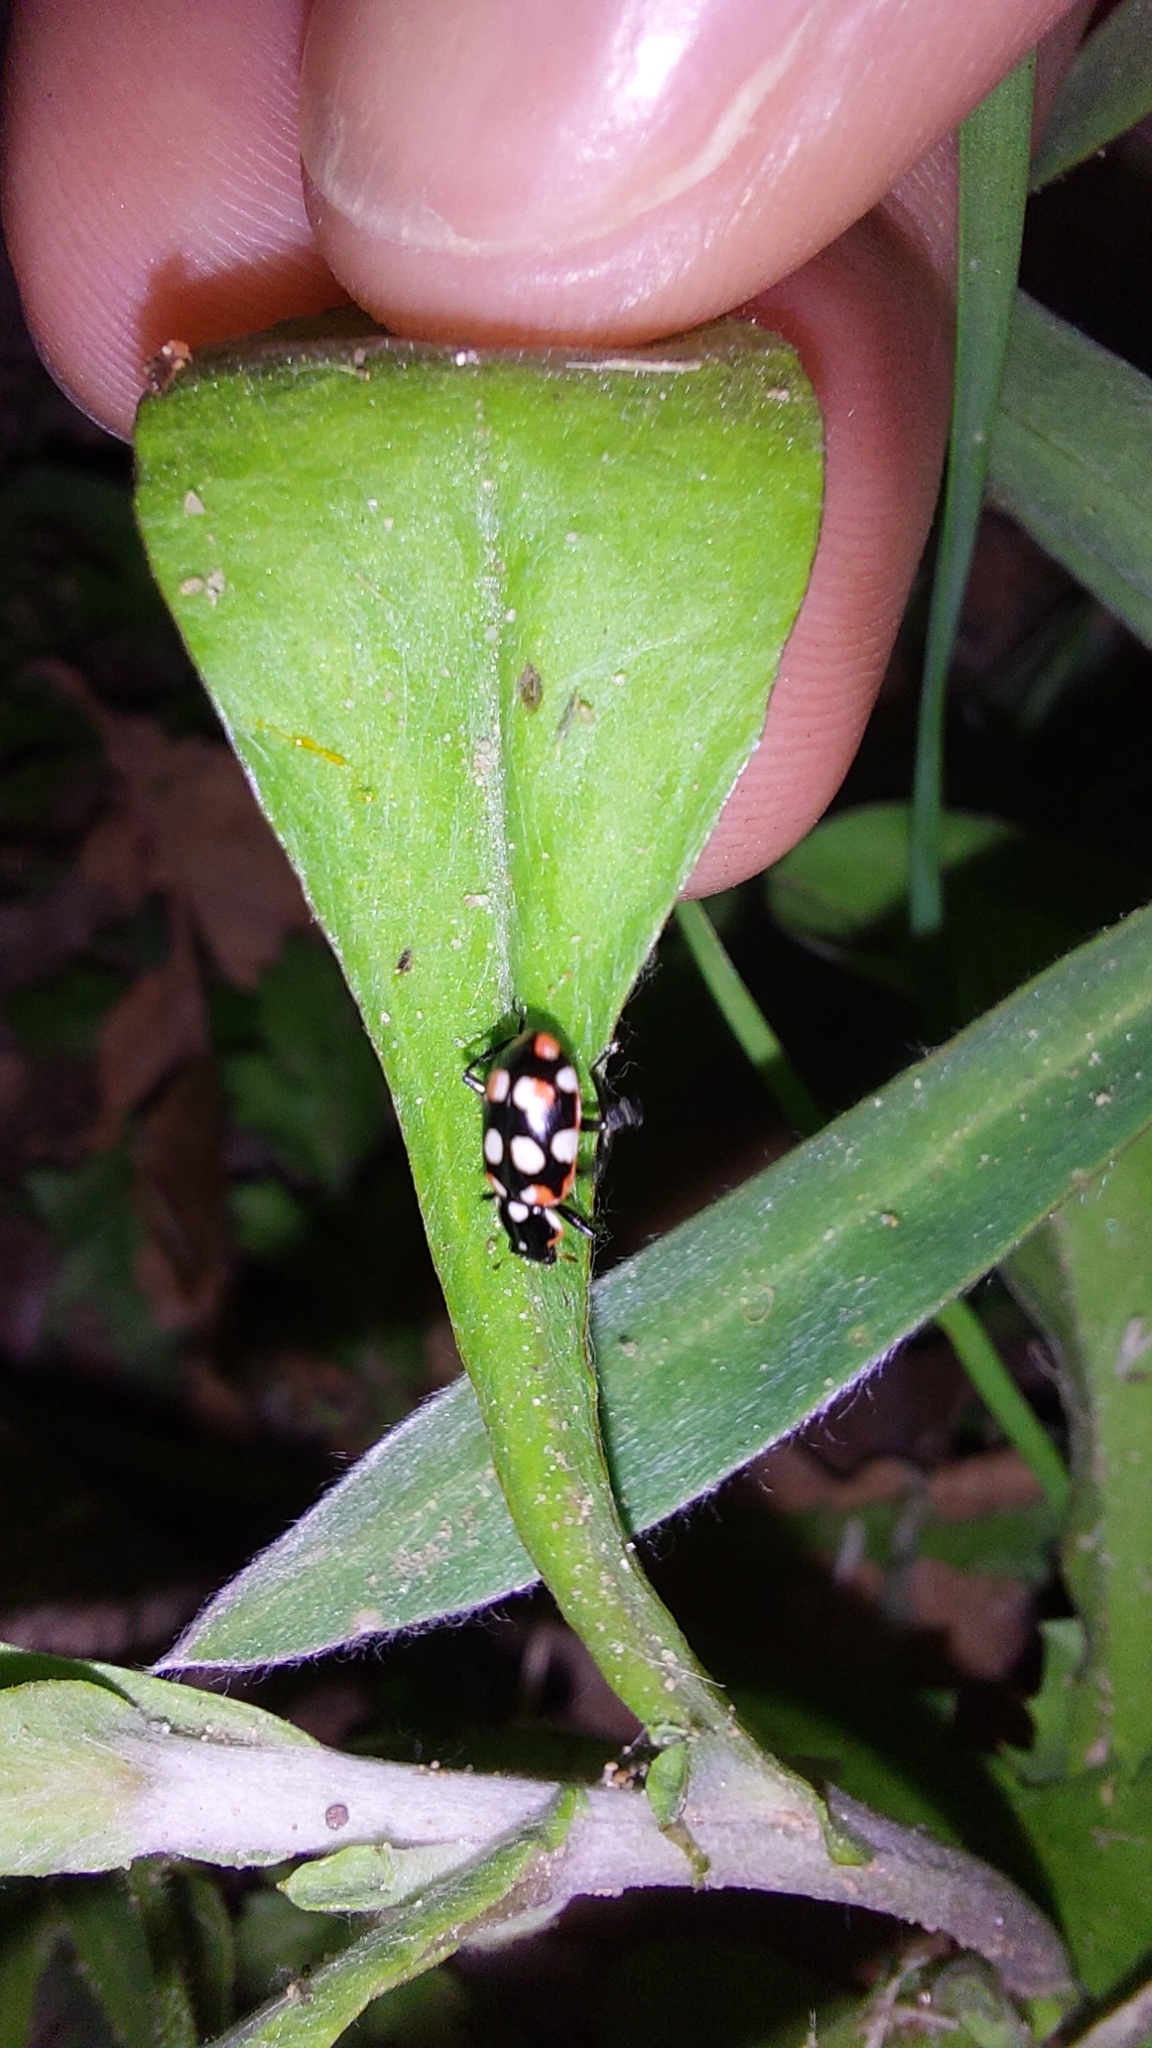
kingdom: Animalia
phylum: Arthropoda
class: Insecta
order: Coleoptera
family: Coccinellidae
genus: Eriopis
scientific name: Eriopis connexa
